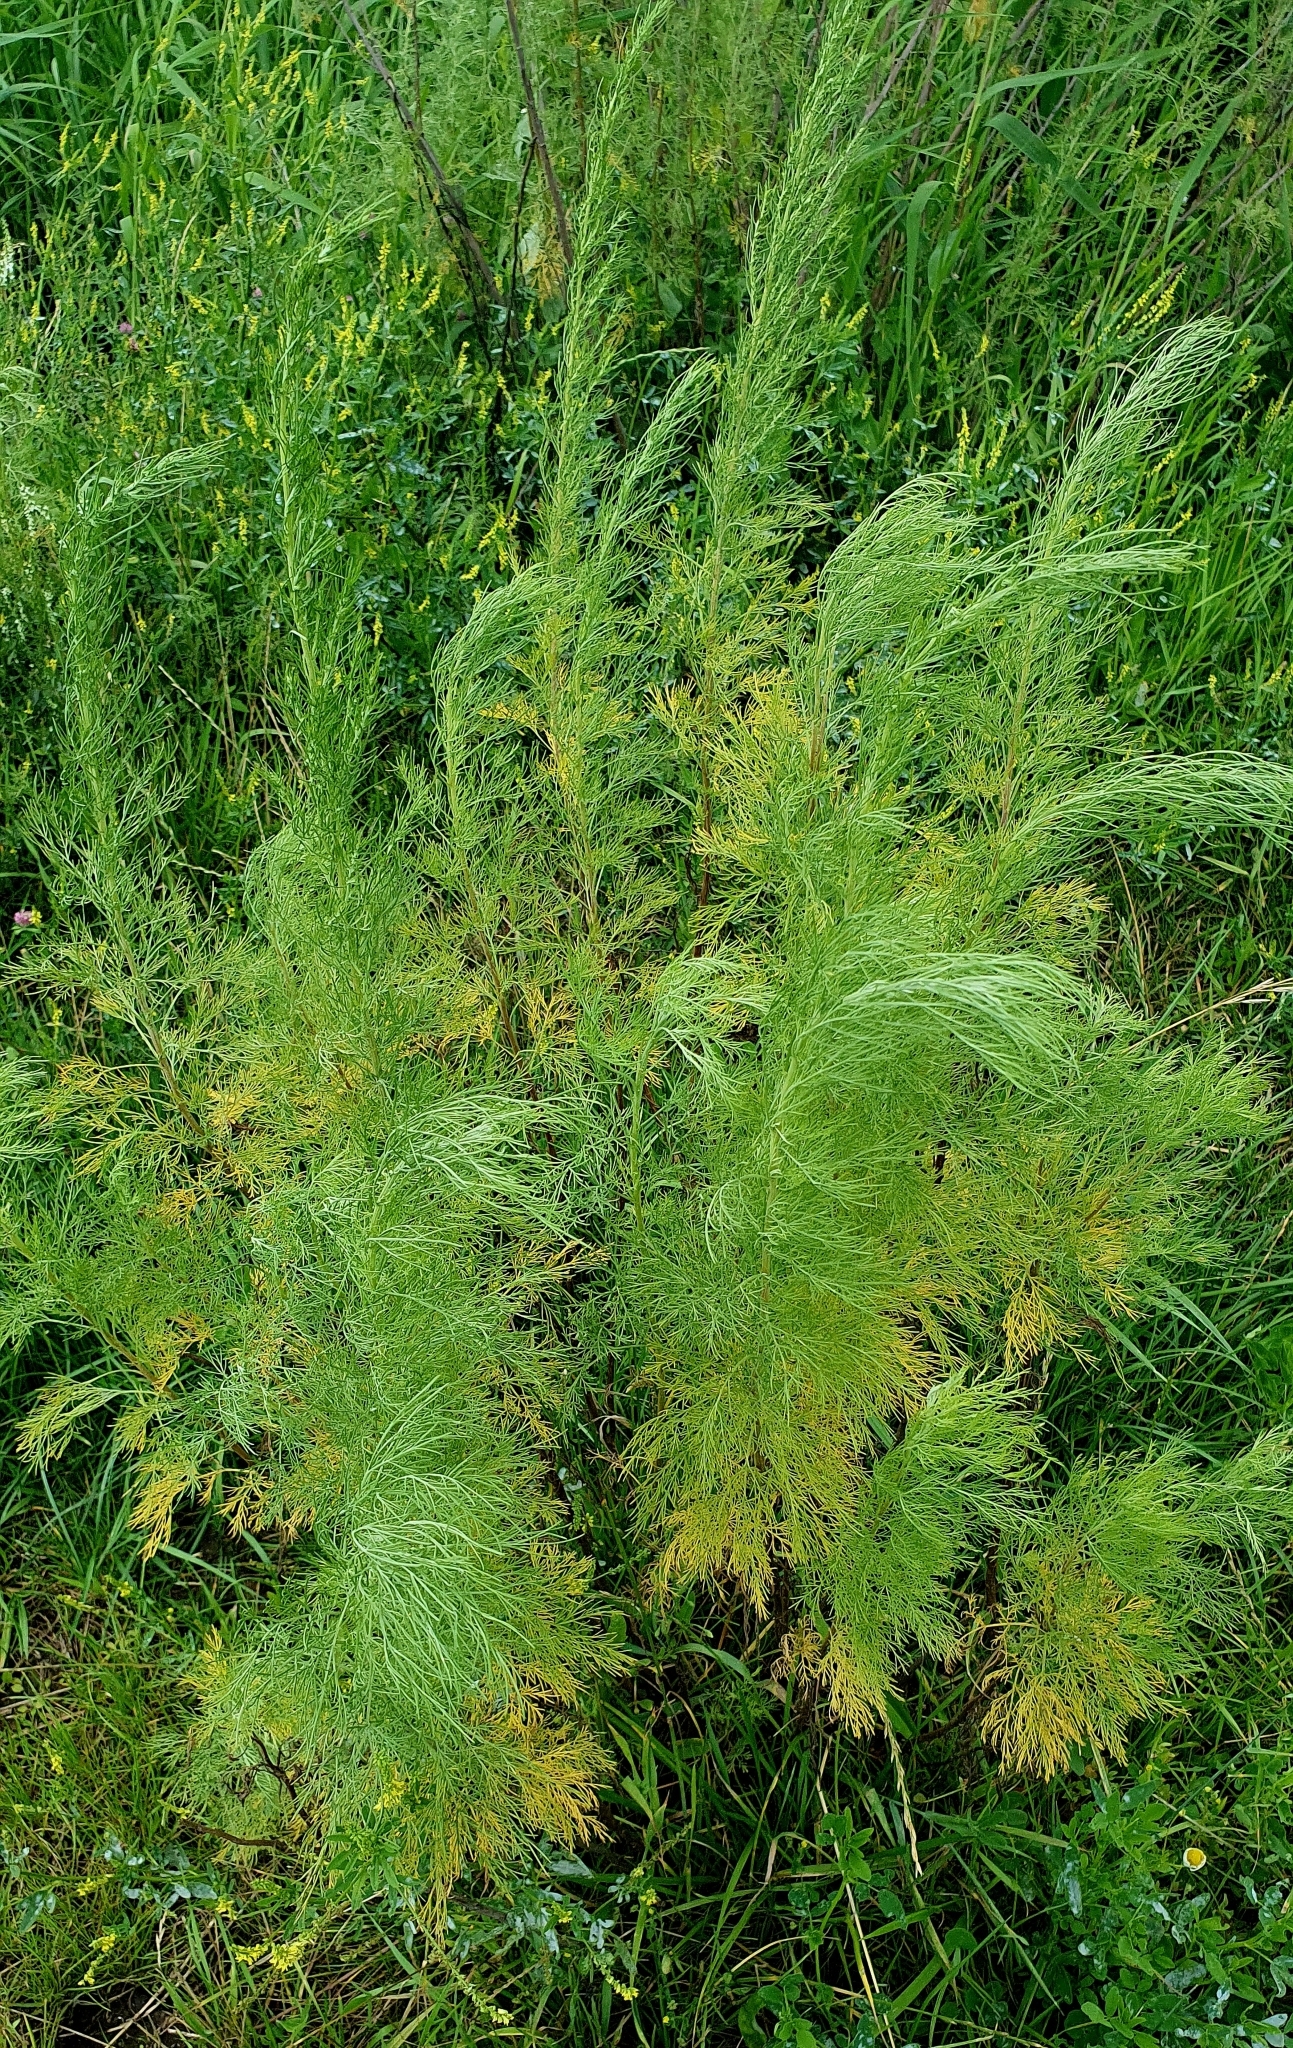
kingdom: Plantae
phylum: Tracheophyta
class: Magnoliopsida
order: Asterales
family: Asteraceae
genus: Artemisia
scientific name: Artemisia abrotanum
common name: Southernwood
